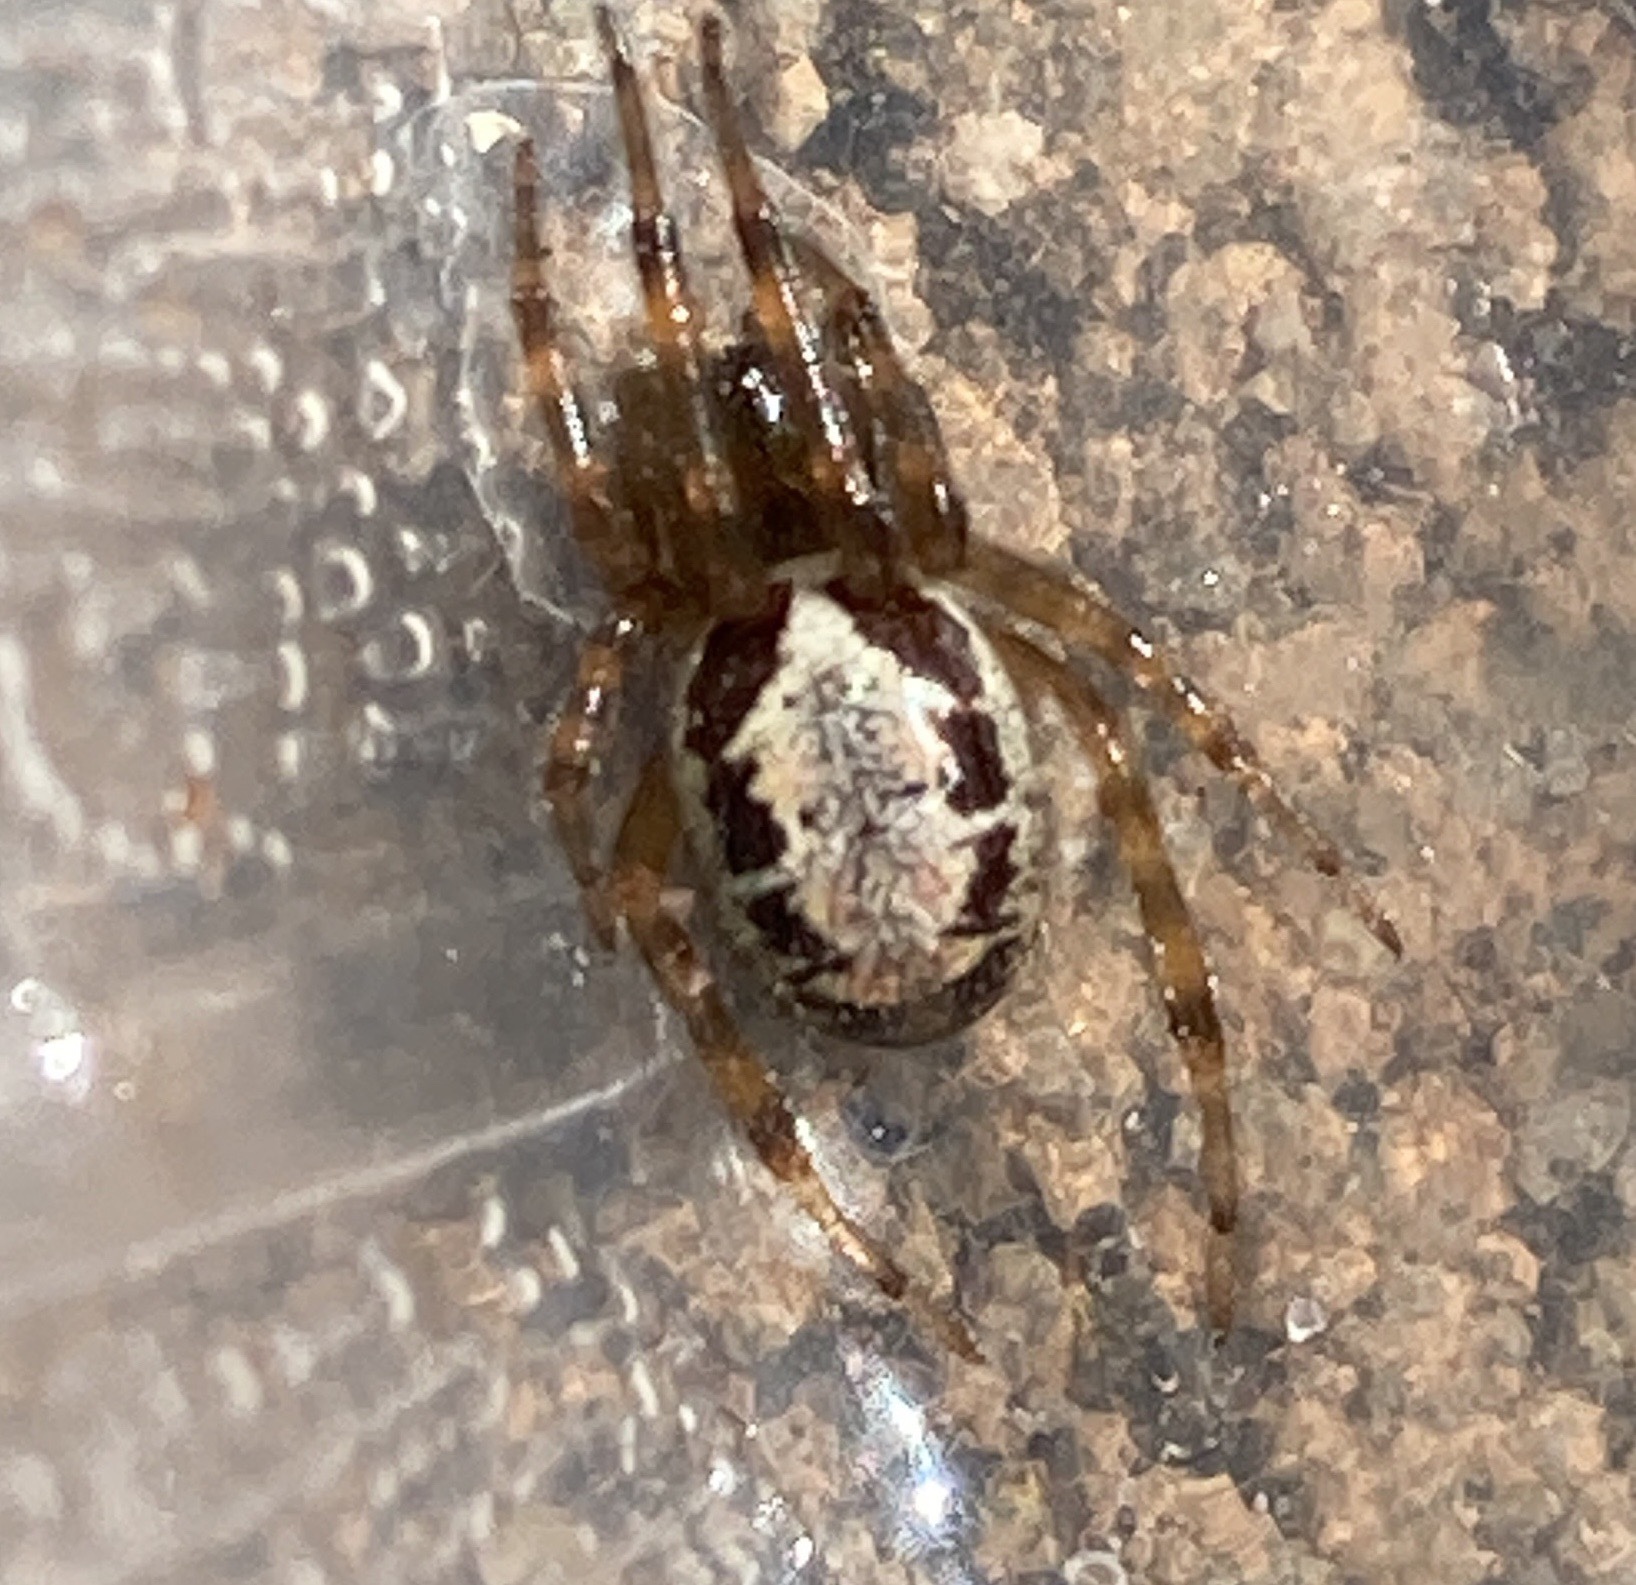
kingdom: Animalia
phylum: Arthropoda
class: Arachnida
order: Araneae
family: Theridiidae
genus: Steatoda
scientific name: Steatoda nobilis
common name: Cobweb weaver
